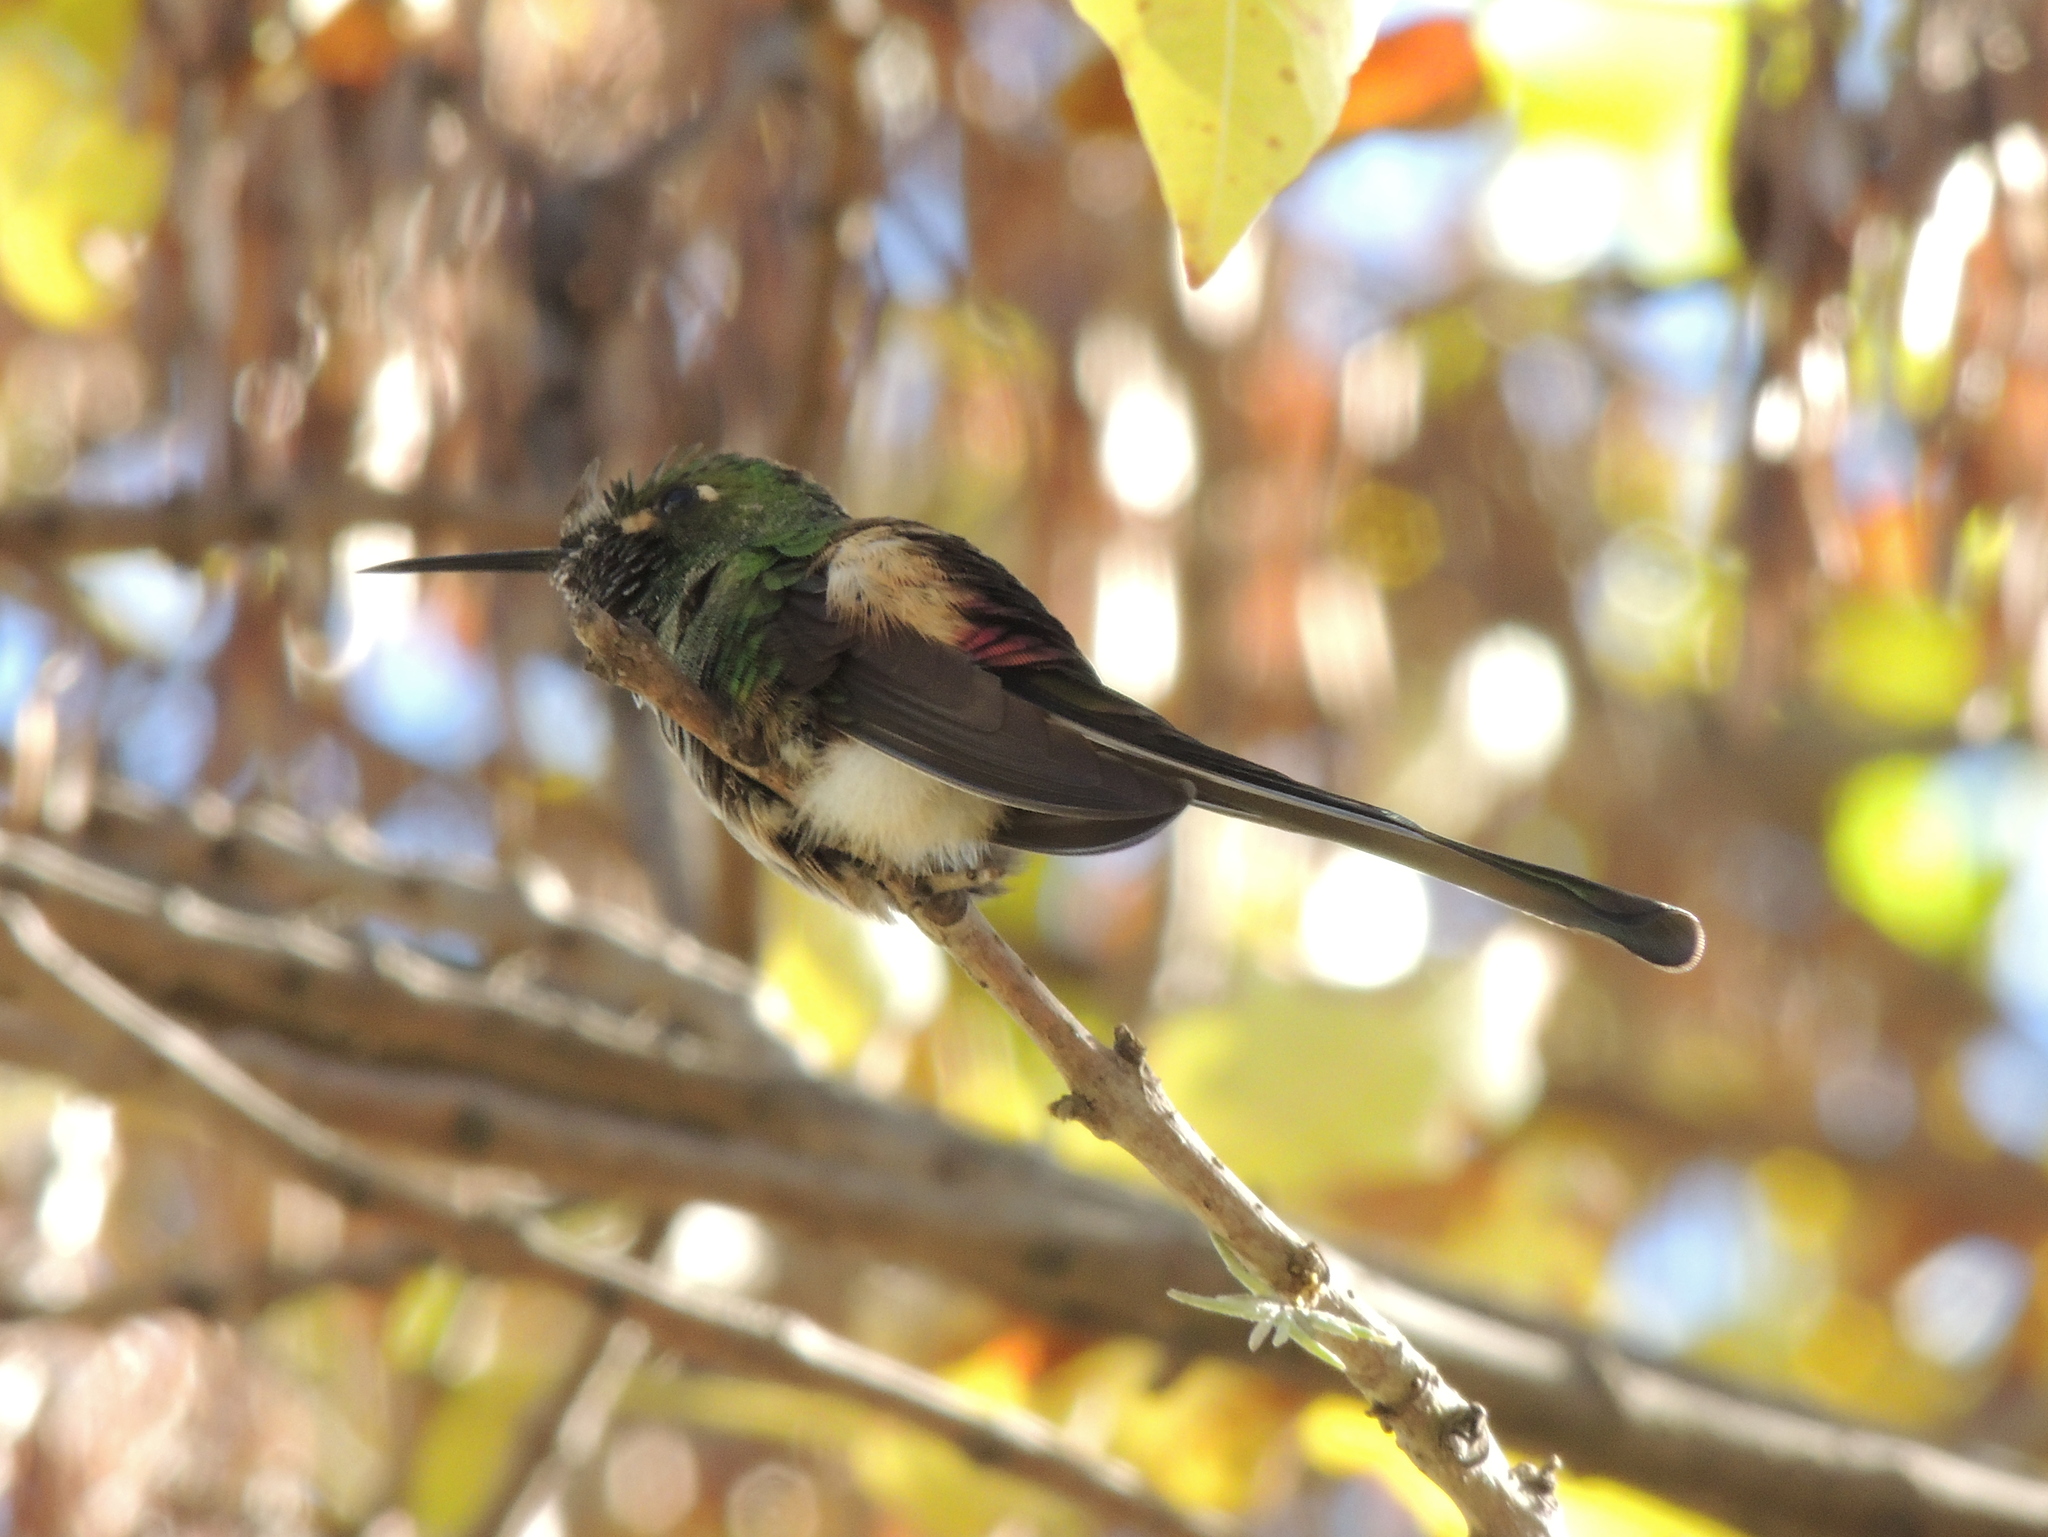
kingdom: Animalia
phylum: Chordata
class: Aves
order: Apodiformes
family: Trochilidae
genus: Sappho
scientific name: Sappho sparganurus
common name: Red-tailed comet
